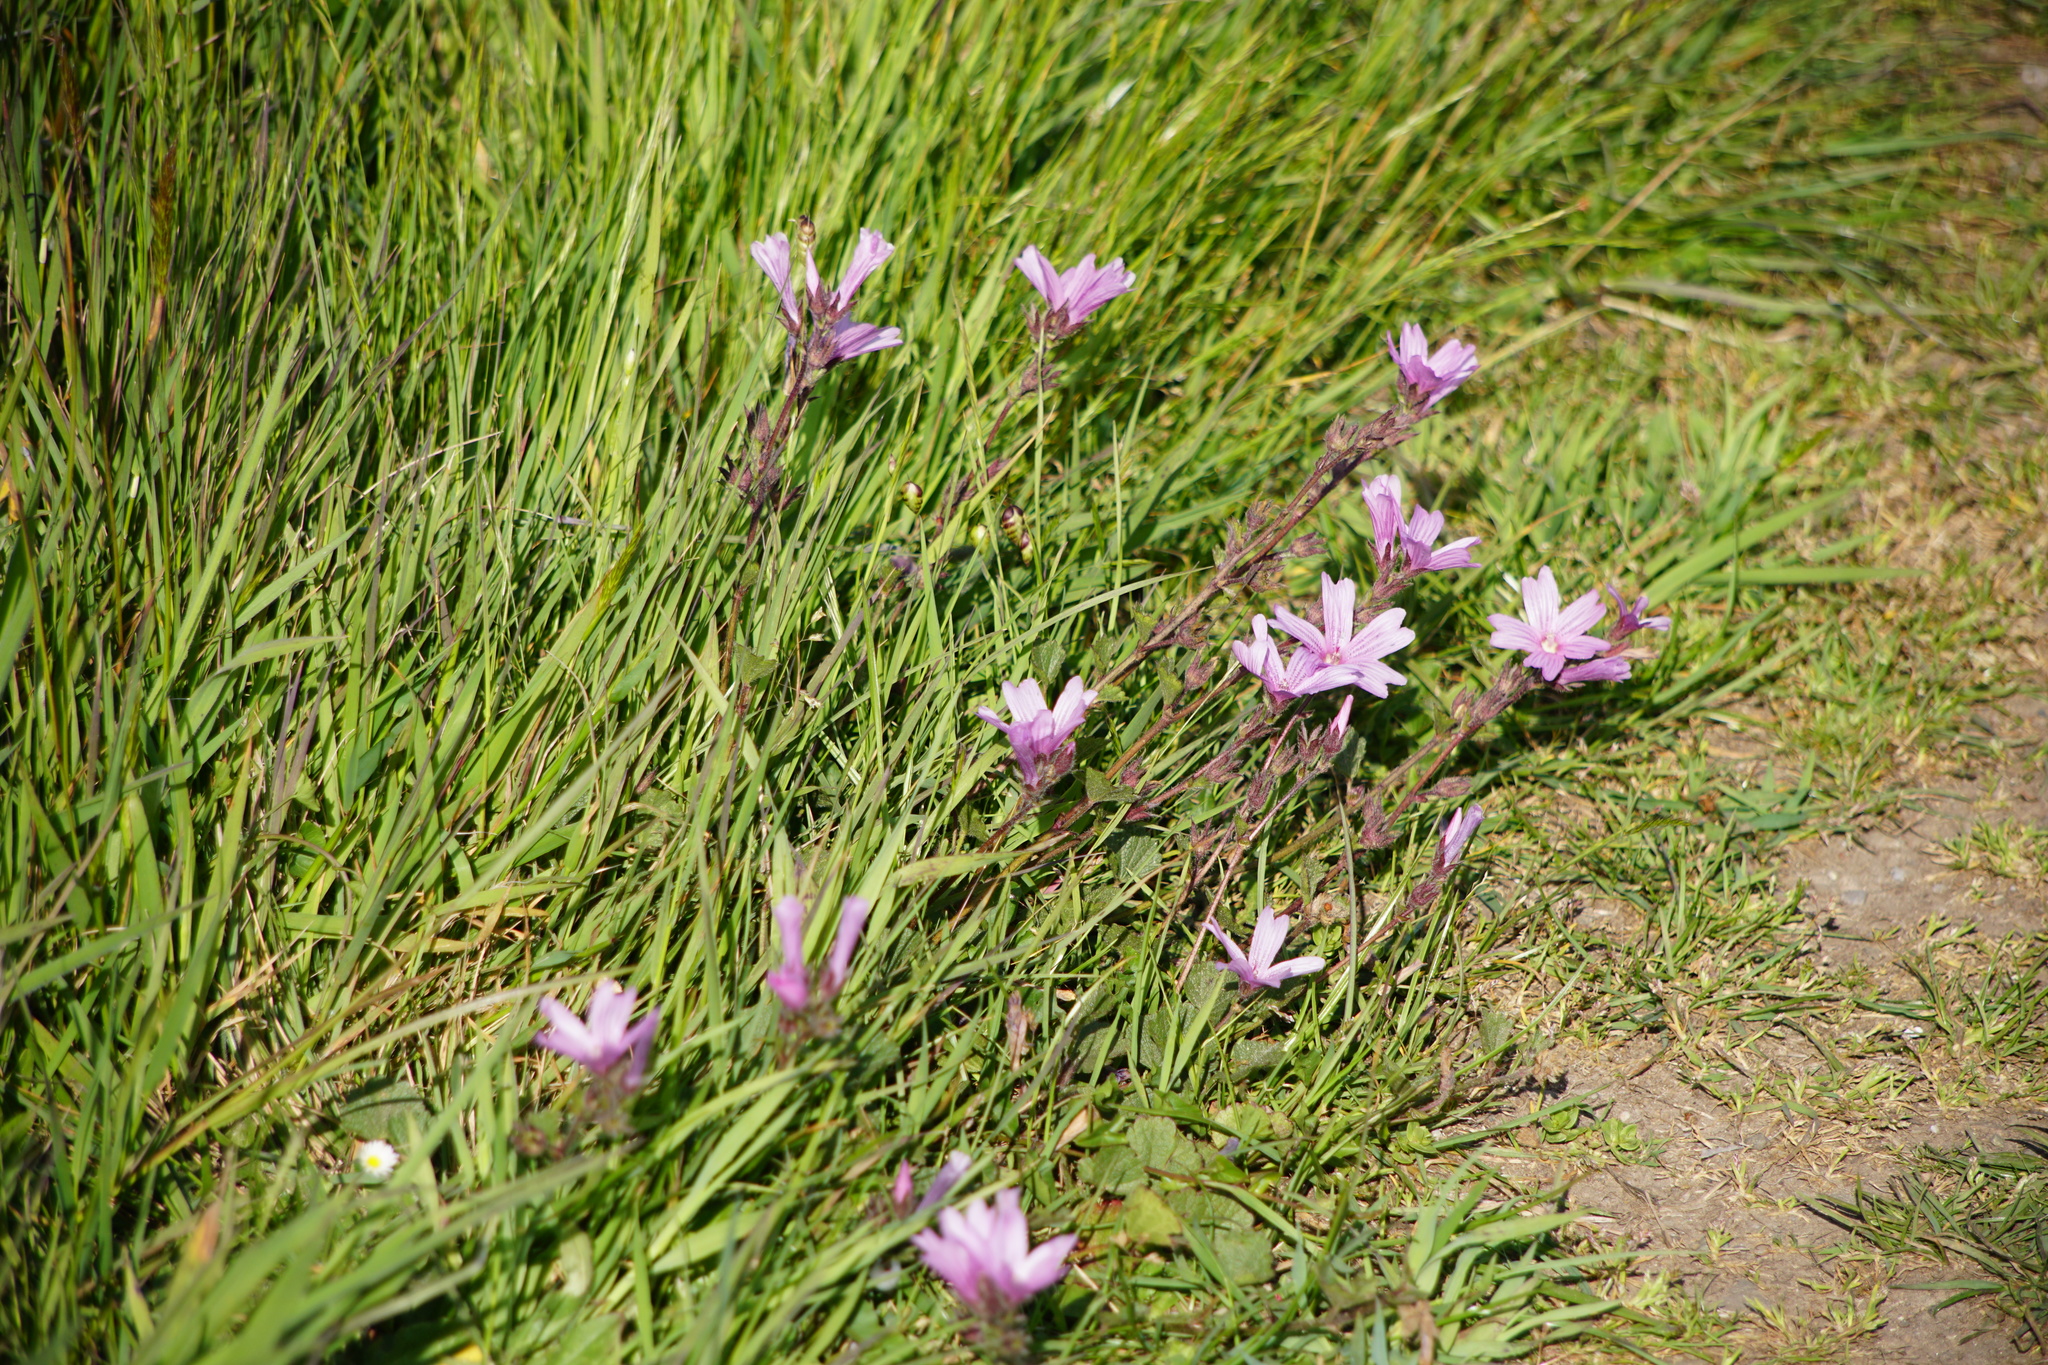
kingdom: Plantae
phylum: Tracheophyta
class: Magnoliopsida
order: Malvales
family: Malvaceae
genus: Sidalcea
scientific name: Sidalcea malviflora
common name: Greek mallow
